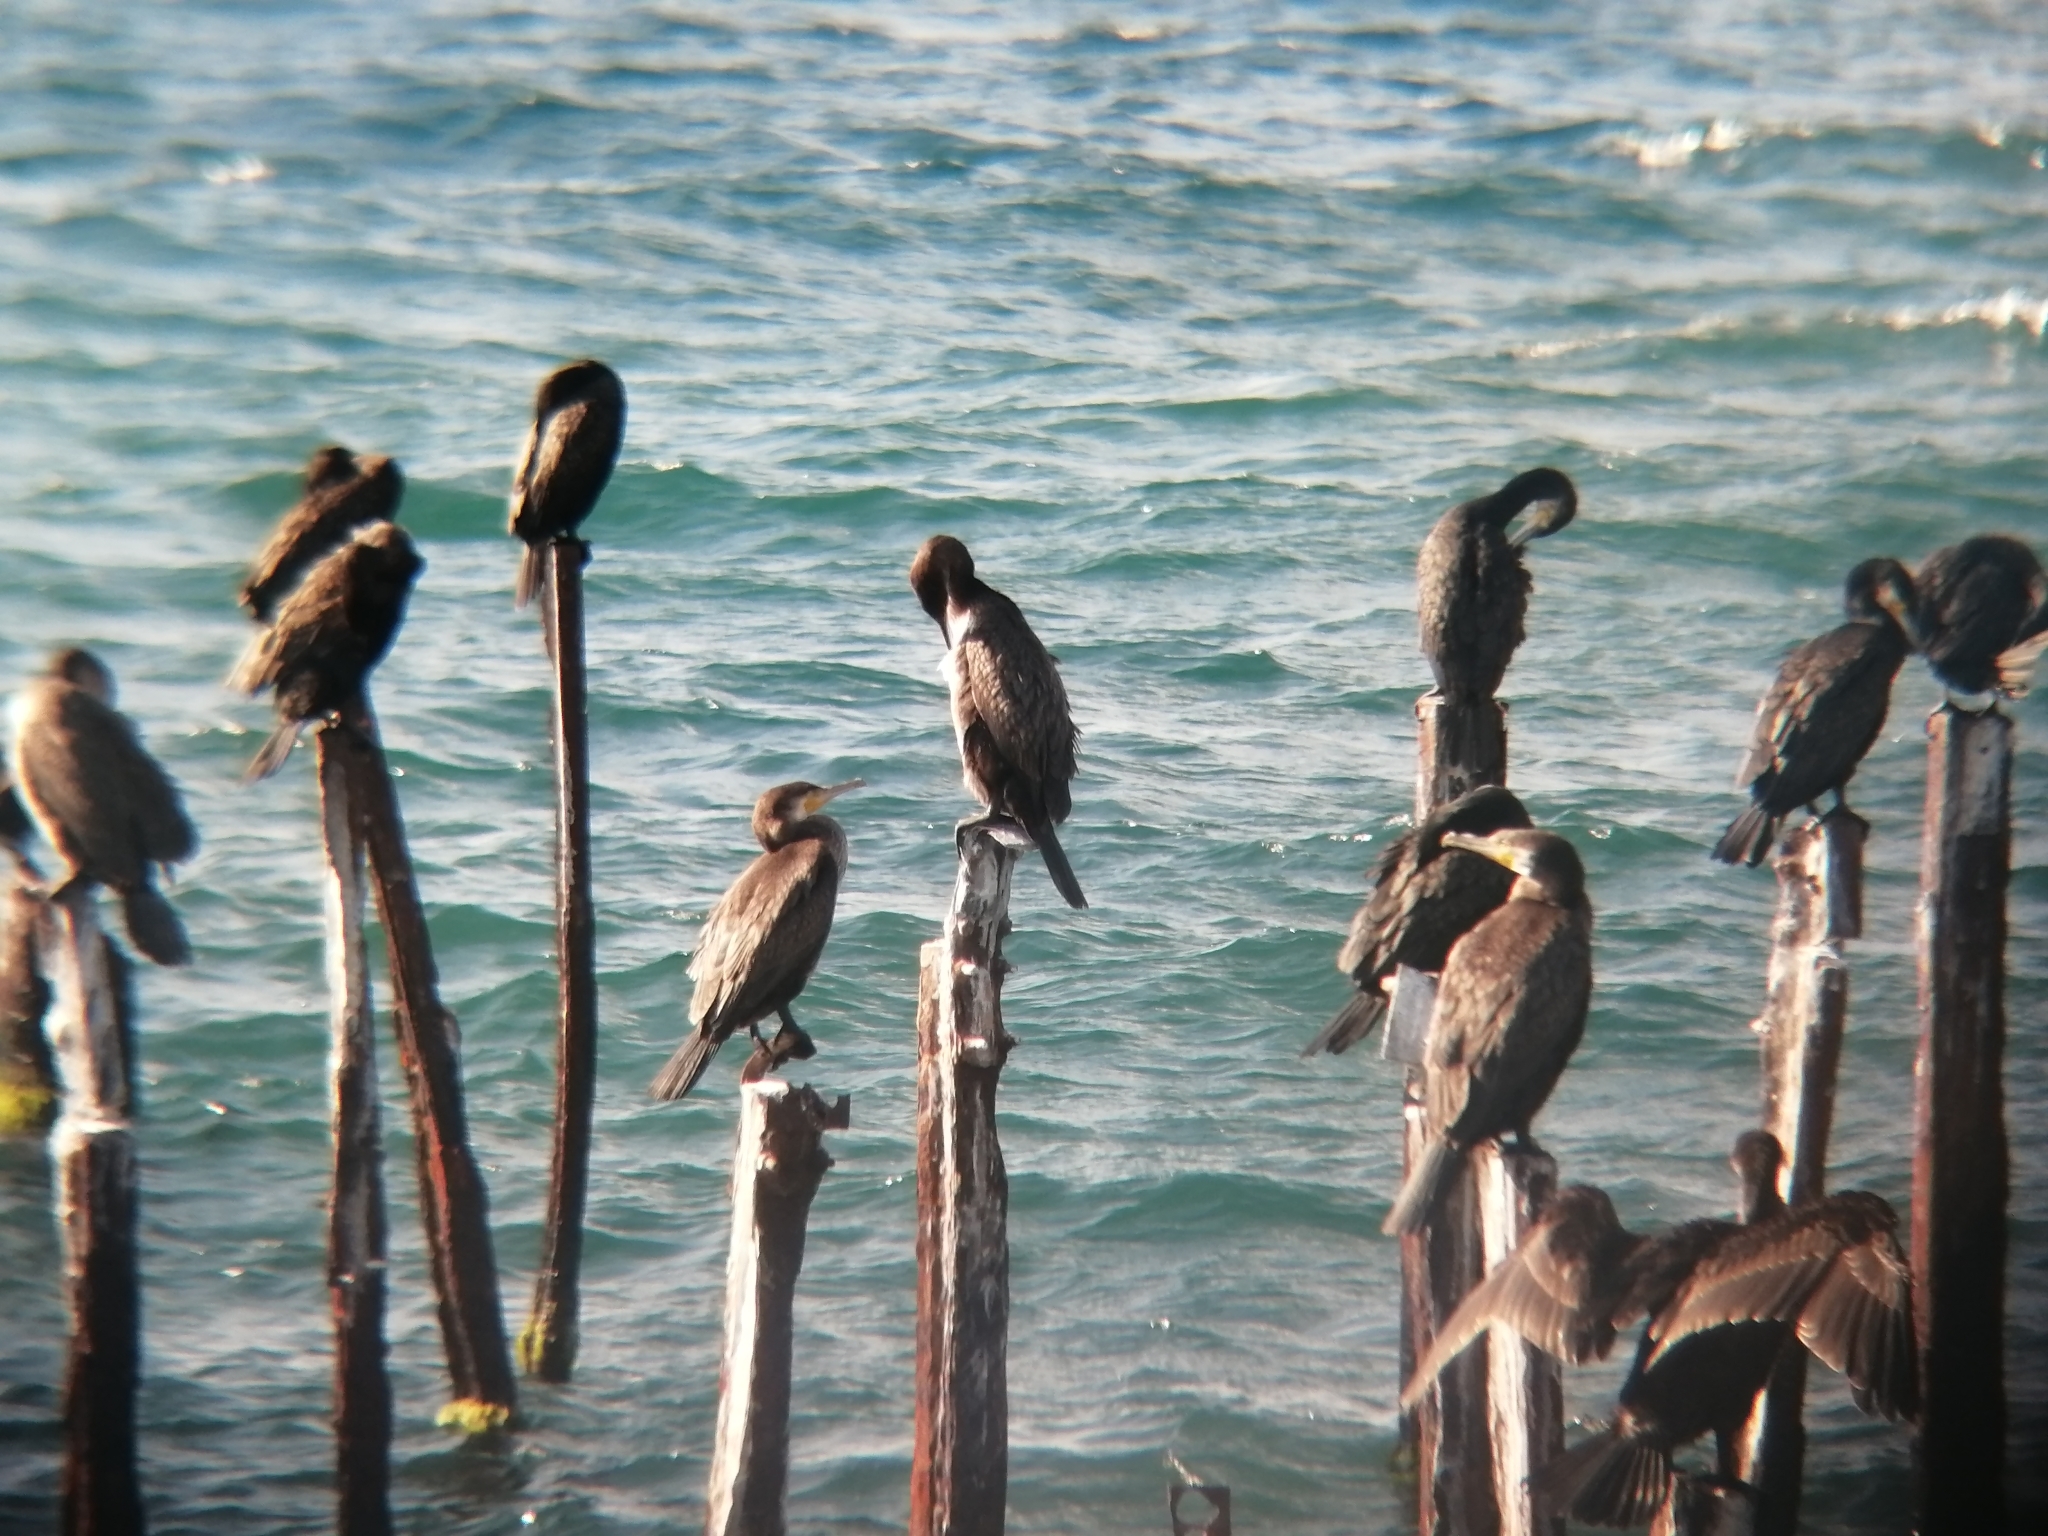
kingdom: Animalia
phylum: Chordata
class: Aves
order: Suliformes
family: Phalacrocoracidae
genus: Phalacrocorax
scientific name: Phalacrocorax carbo
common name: Great cormorant
